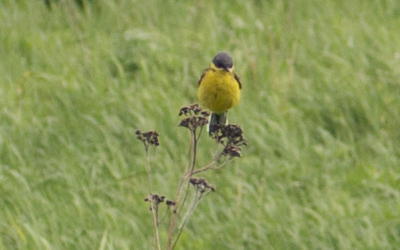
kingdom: Animalia
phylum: Chordata
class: Aves
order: Passeriformes
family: Motacillidae
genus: Motacilla
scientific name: Motacilla flava
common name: Western yellow wagtail
